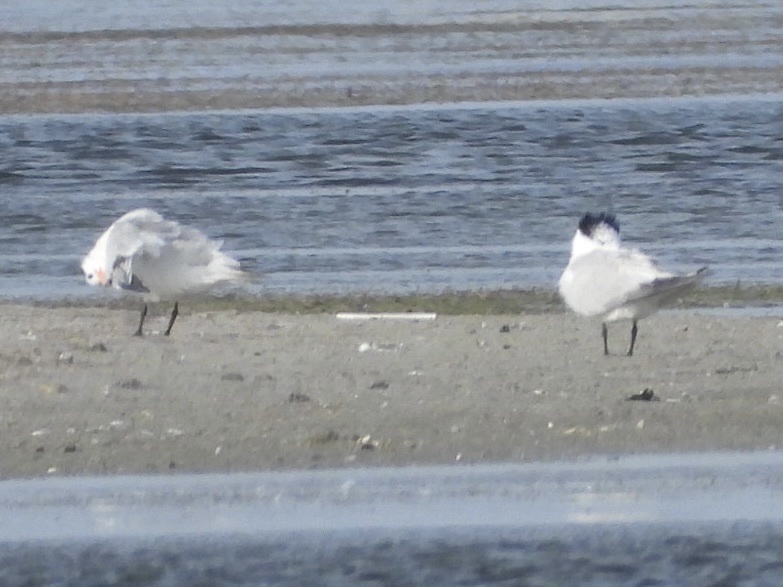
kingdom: Animalia
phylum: Chordata
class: Aves
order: Charadriiformes
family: Laridae
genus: Thalasseus
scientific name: Thalasseus maximus
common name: Royal tern
